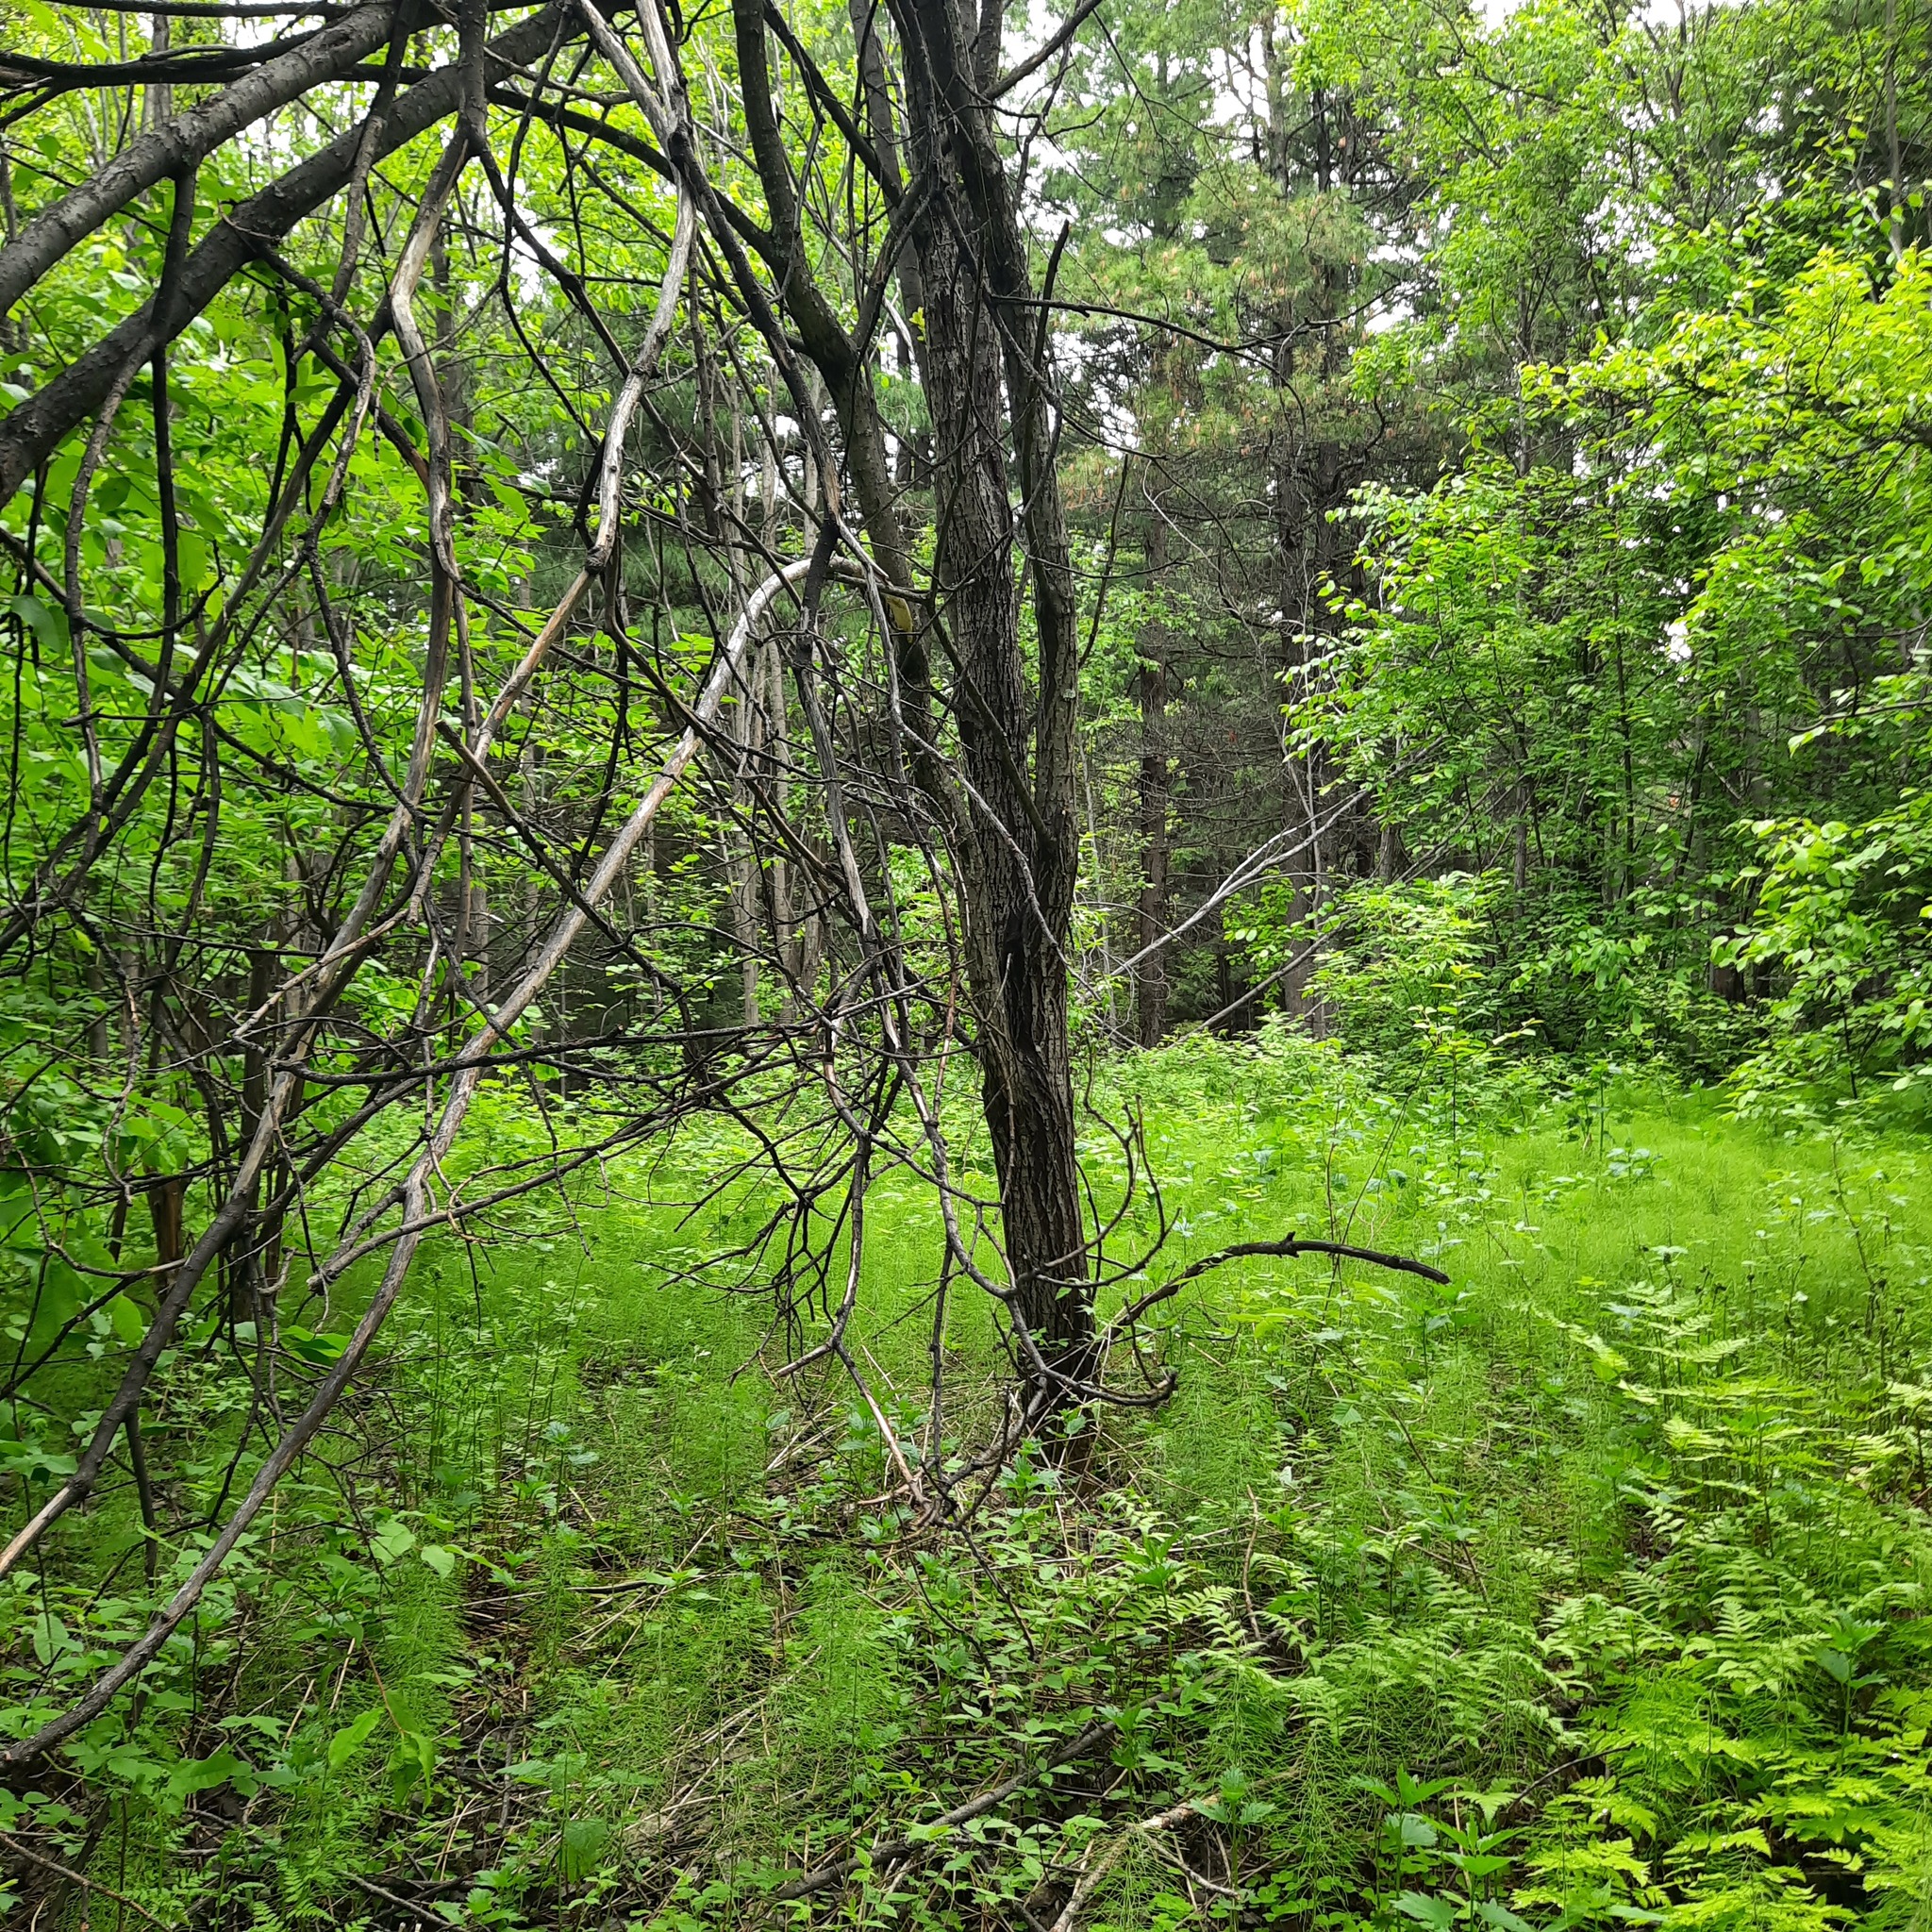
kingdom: Plantae
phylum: Tracheophyta
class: Magnoliopsida
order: Malpighiales
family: Salicaceae
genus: Salix
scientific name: Salix caprea
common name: Goat willow
